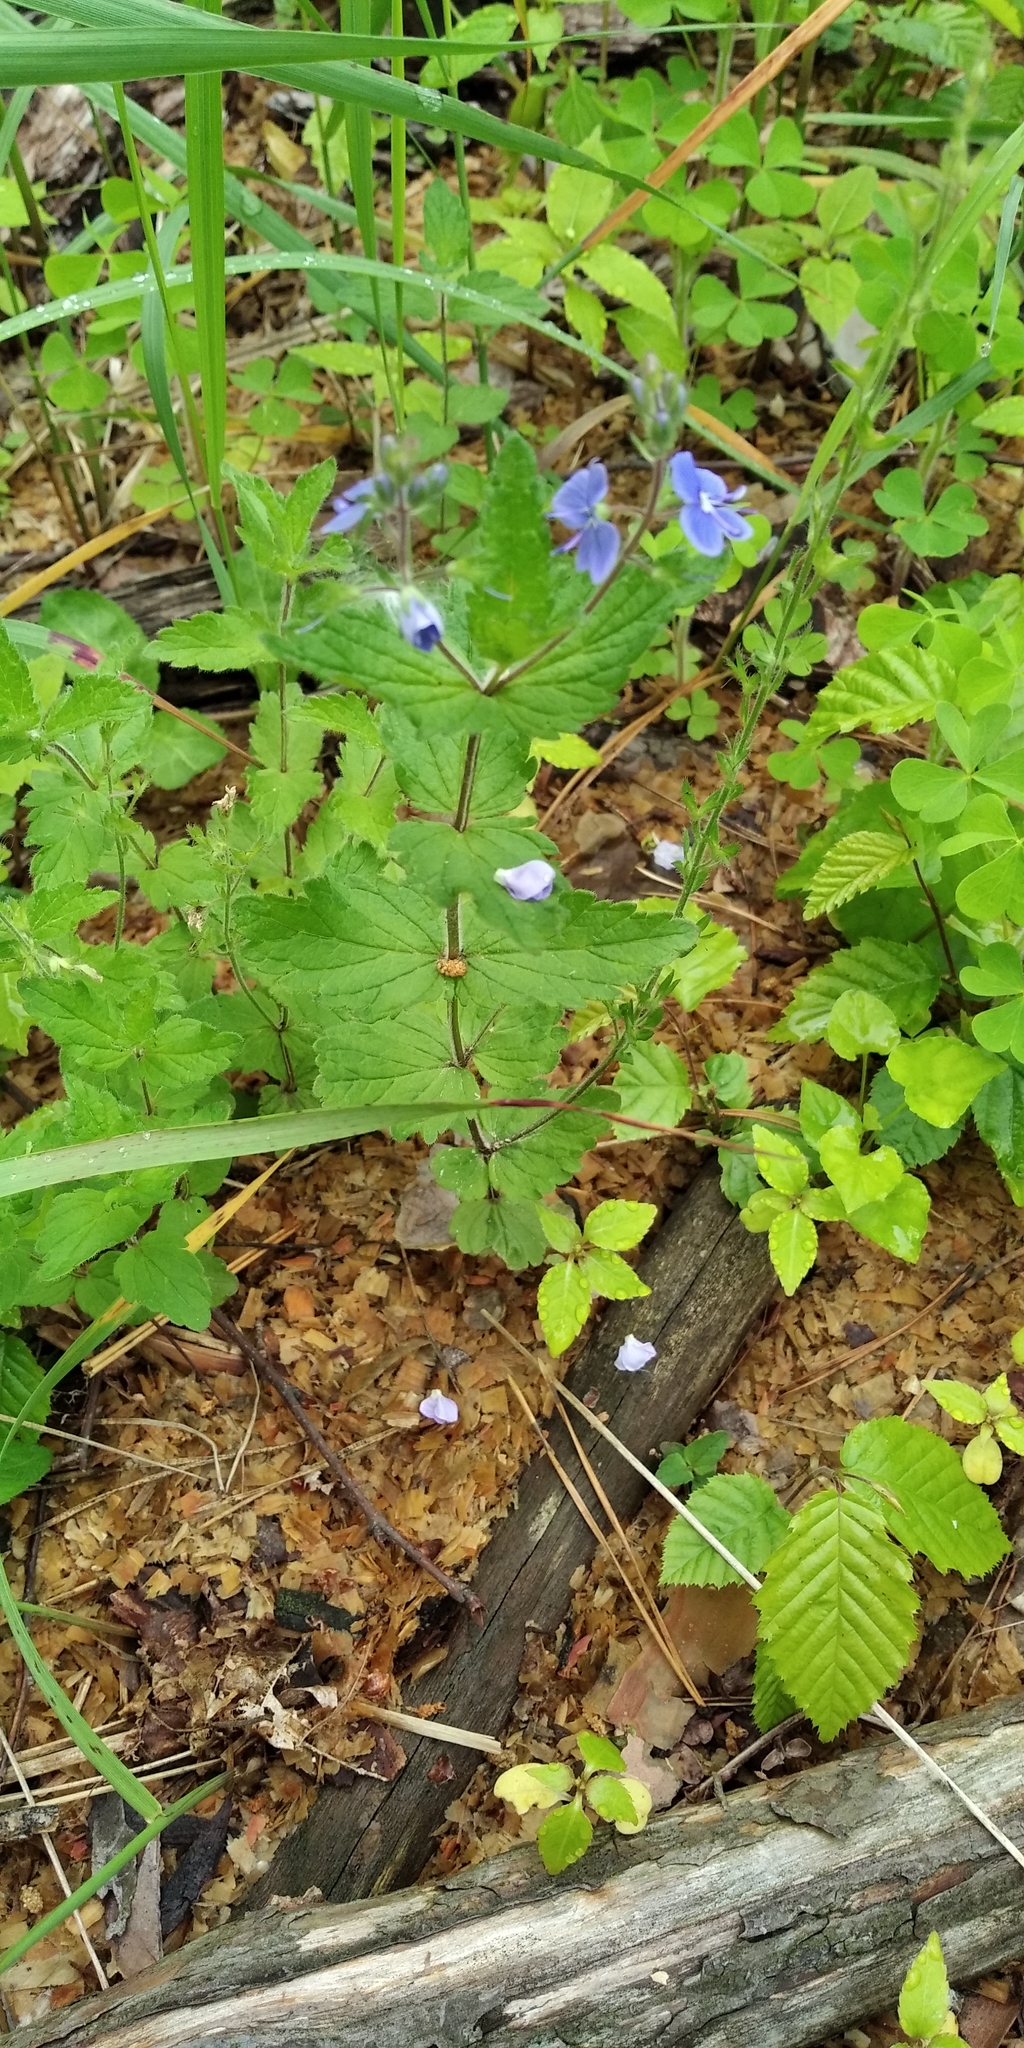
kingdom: Plantae
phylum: Tracheophyta
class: Magnoliopsida
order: Lamiales
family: Plantaginaceae
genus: Veronica
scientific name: Veronica chamaedrys
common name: Germander speedwell
